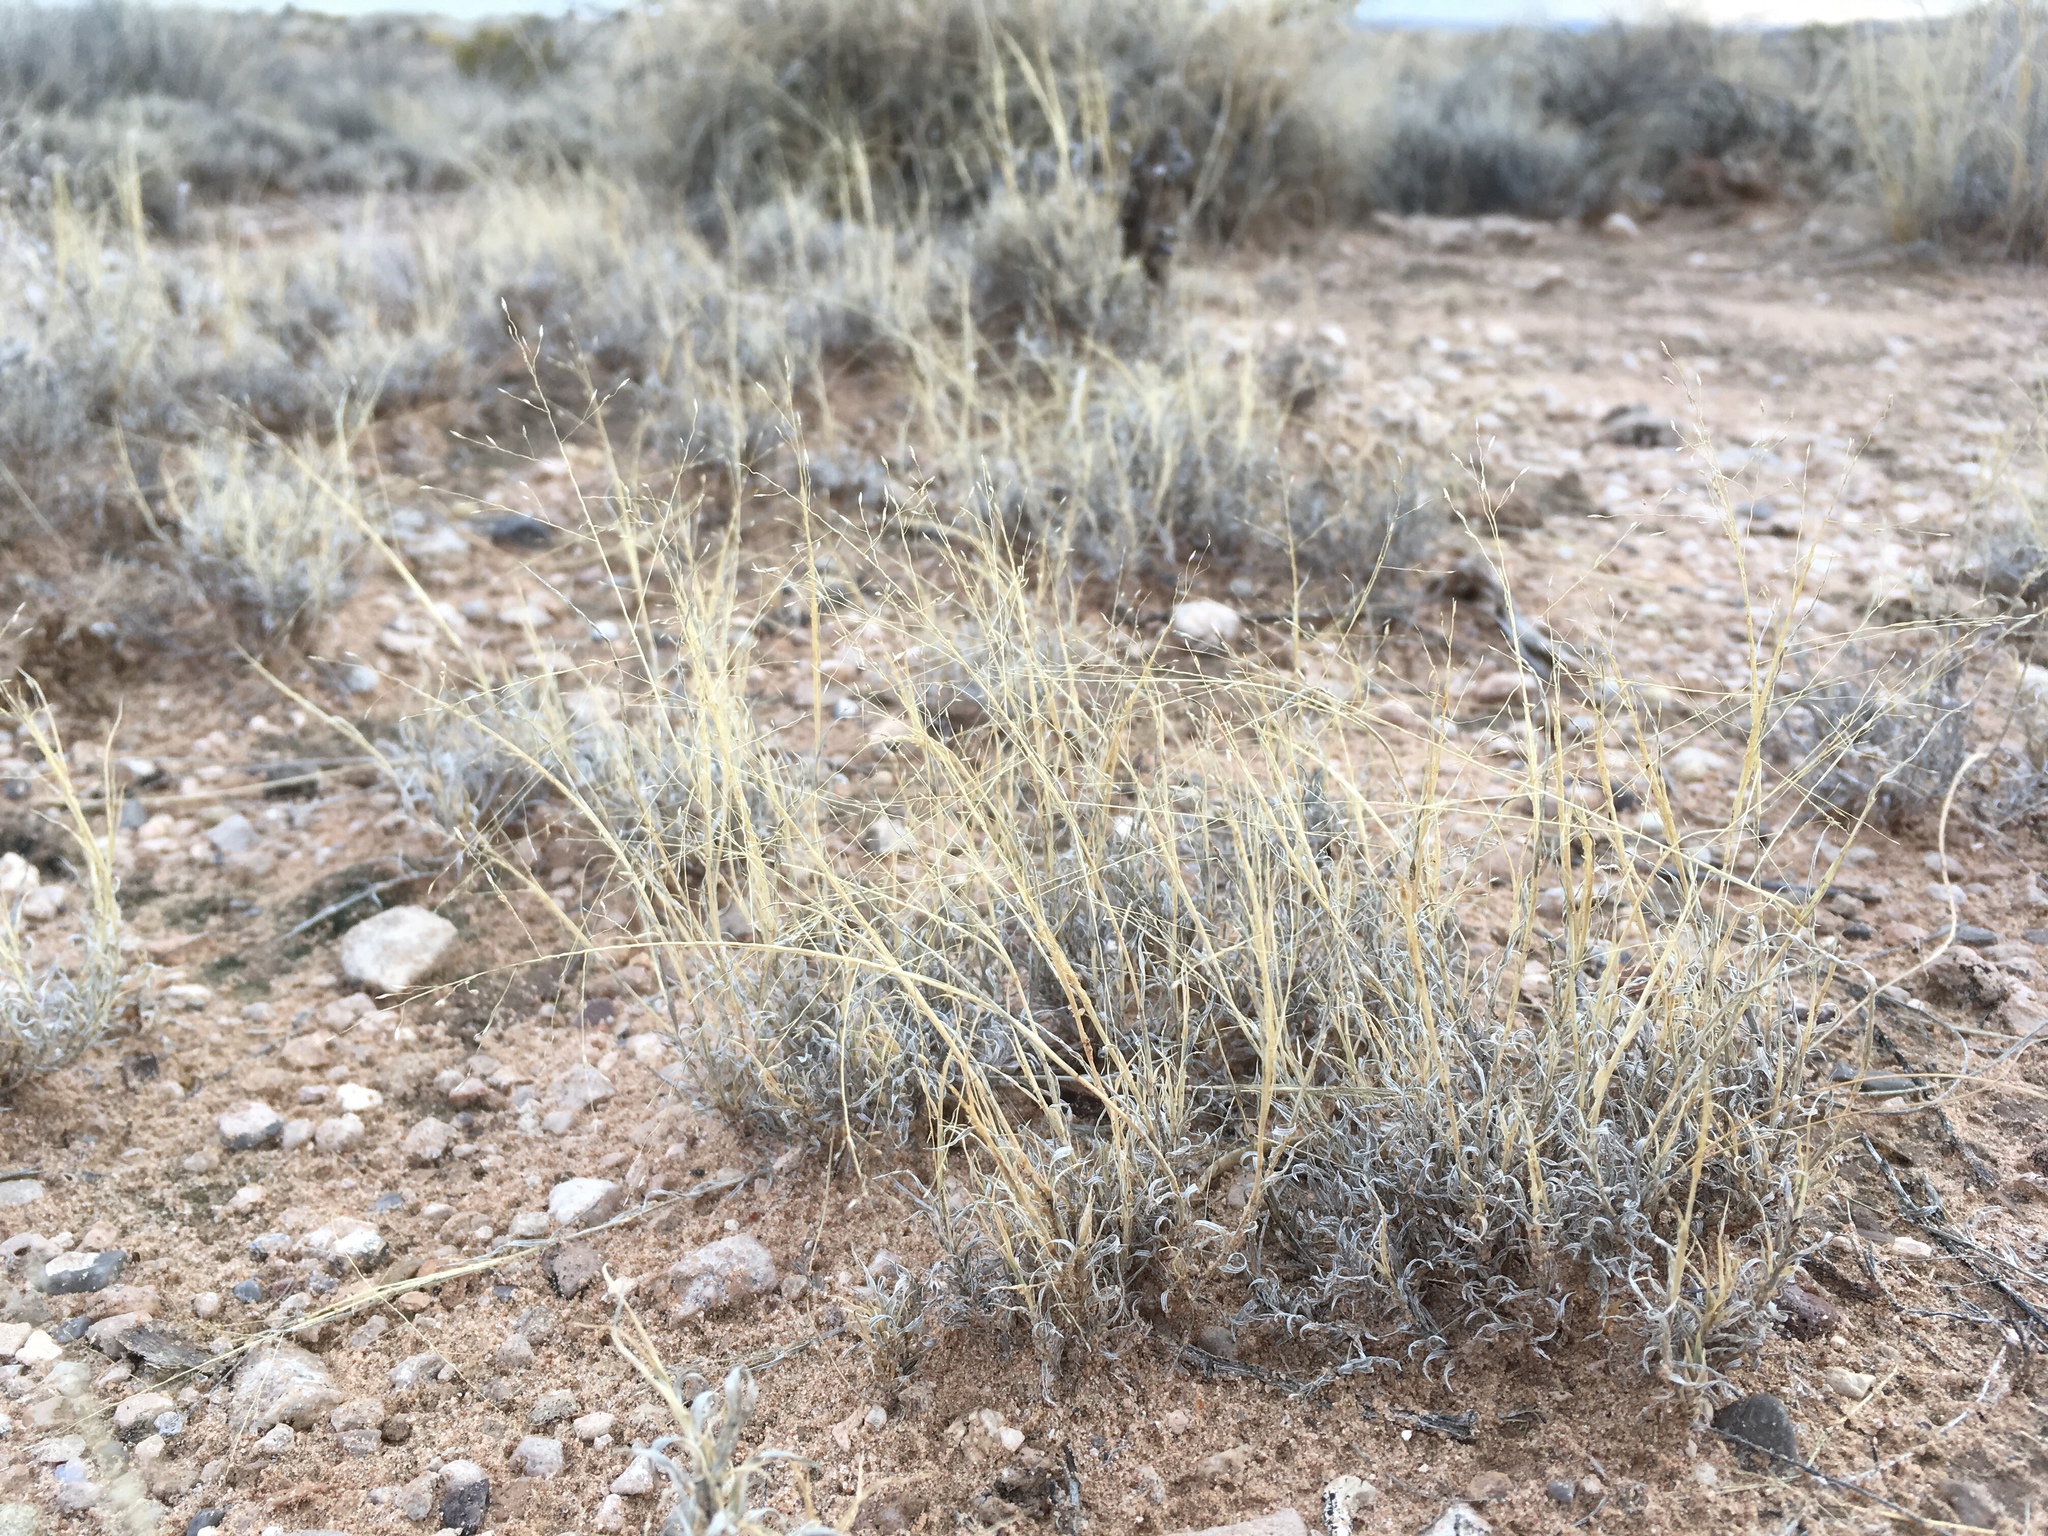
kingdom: Plantae
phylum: Tracheophyta
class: Liliopsida
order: Poales
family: Poaceae
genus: Muhlenbergia
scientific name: Muhlenbergia arenacea
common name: Ear muhly
